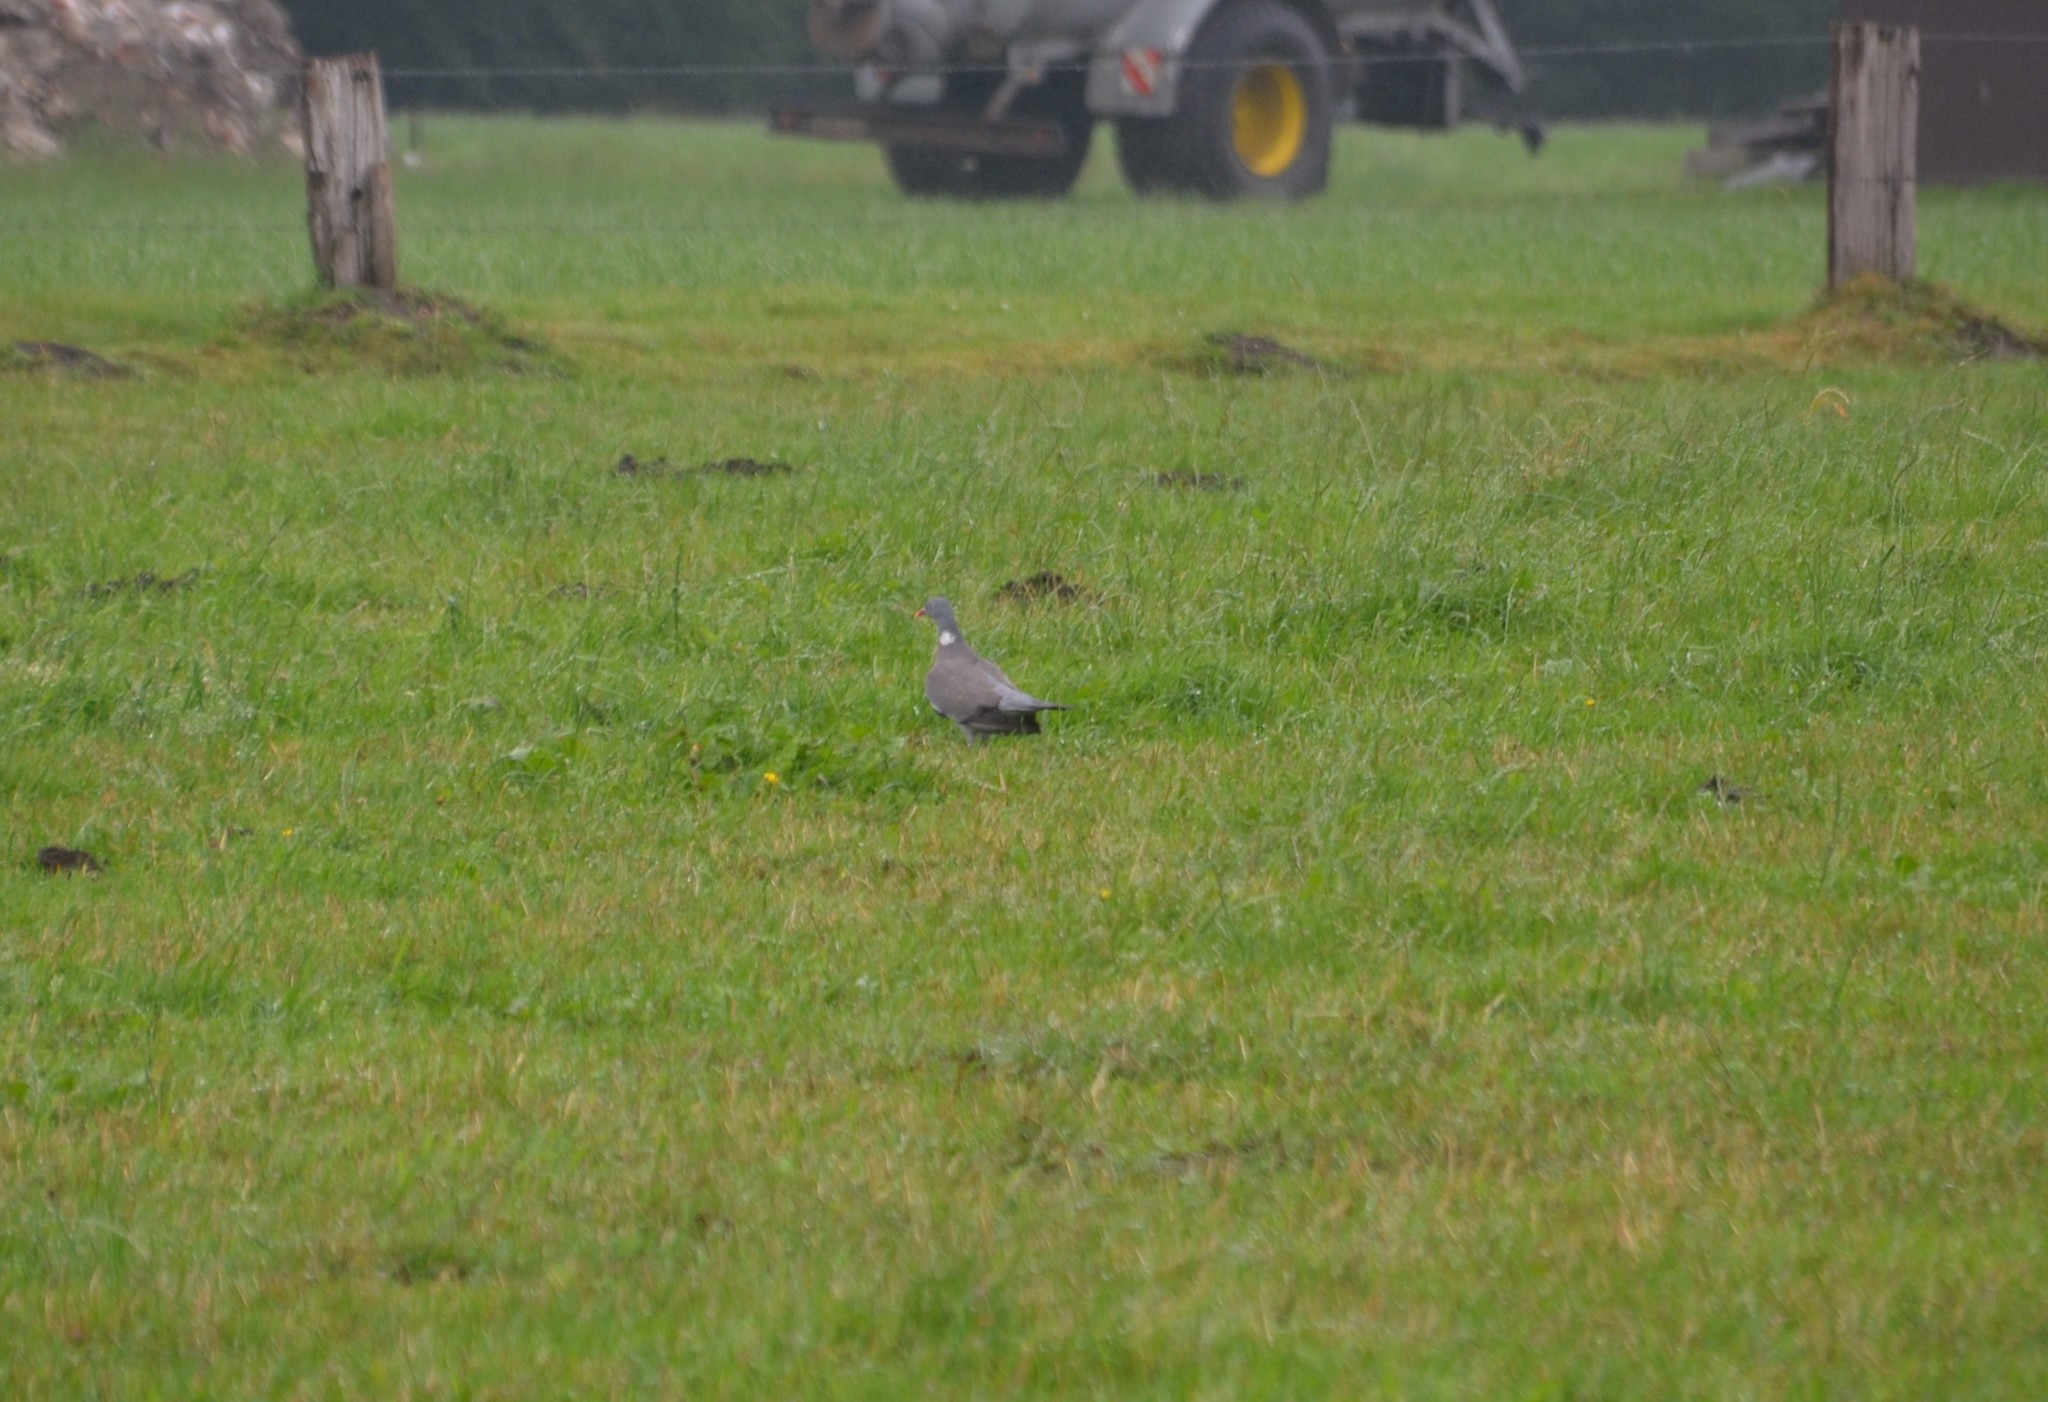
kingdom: Animalia
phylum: Chordata
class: Aves
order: Columbiformes
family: Columbidae
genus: Columba
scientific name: Columba palumbus
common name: Common wood pigeon
